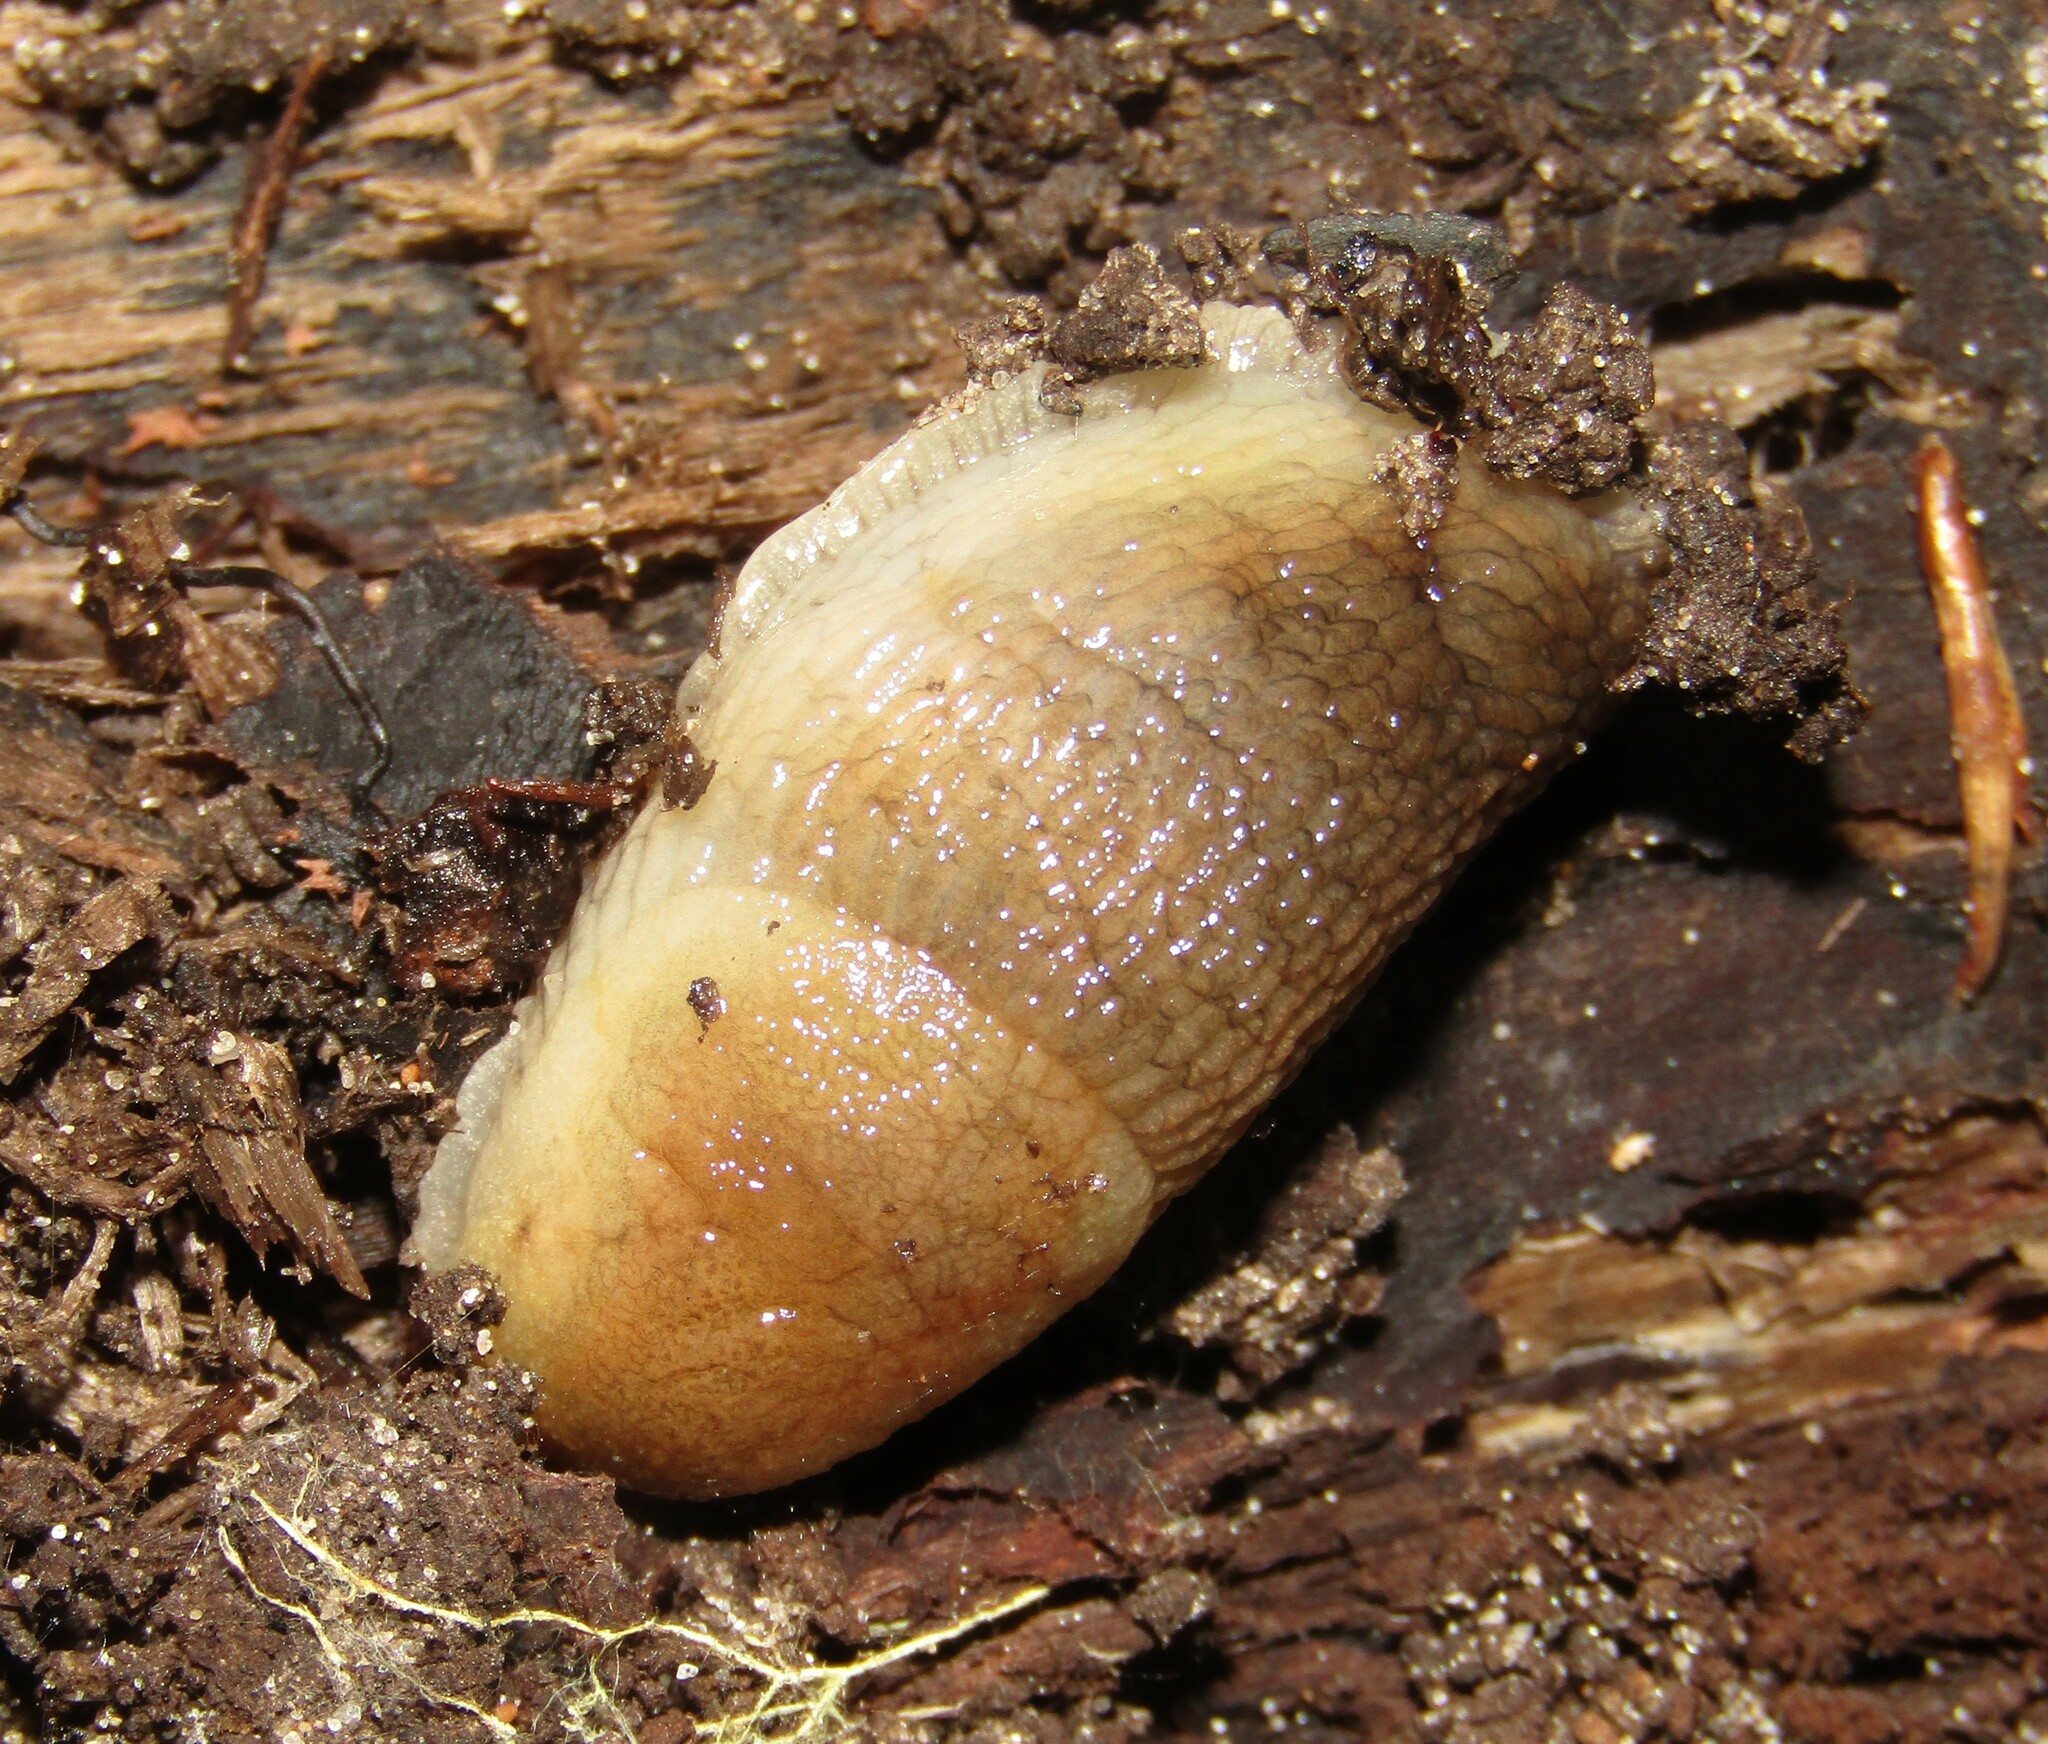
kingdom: Animalia
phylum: Mollusca
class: Gastropoda
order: Stylommatophora
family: Arionidae
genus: Arion
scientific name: Arion fuscus
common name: Northern dusky slug
